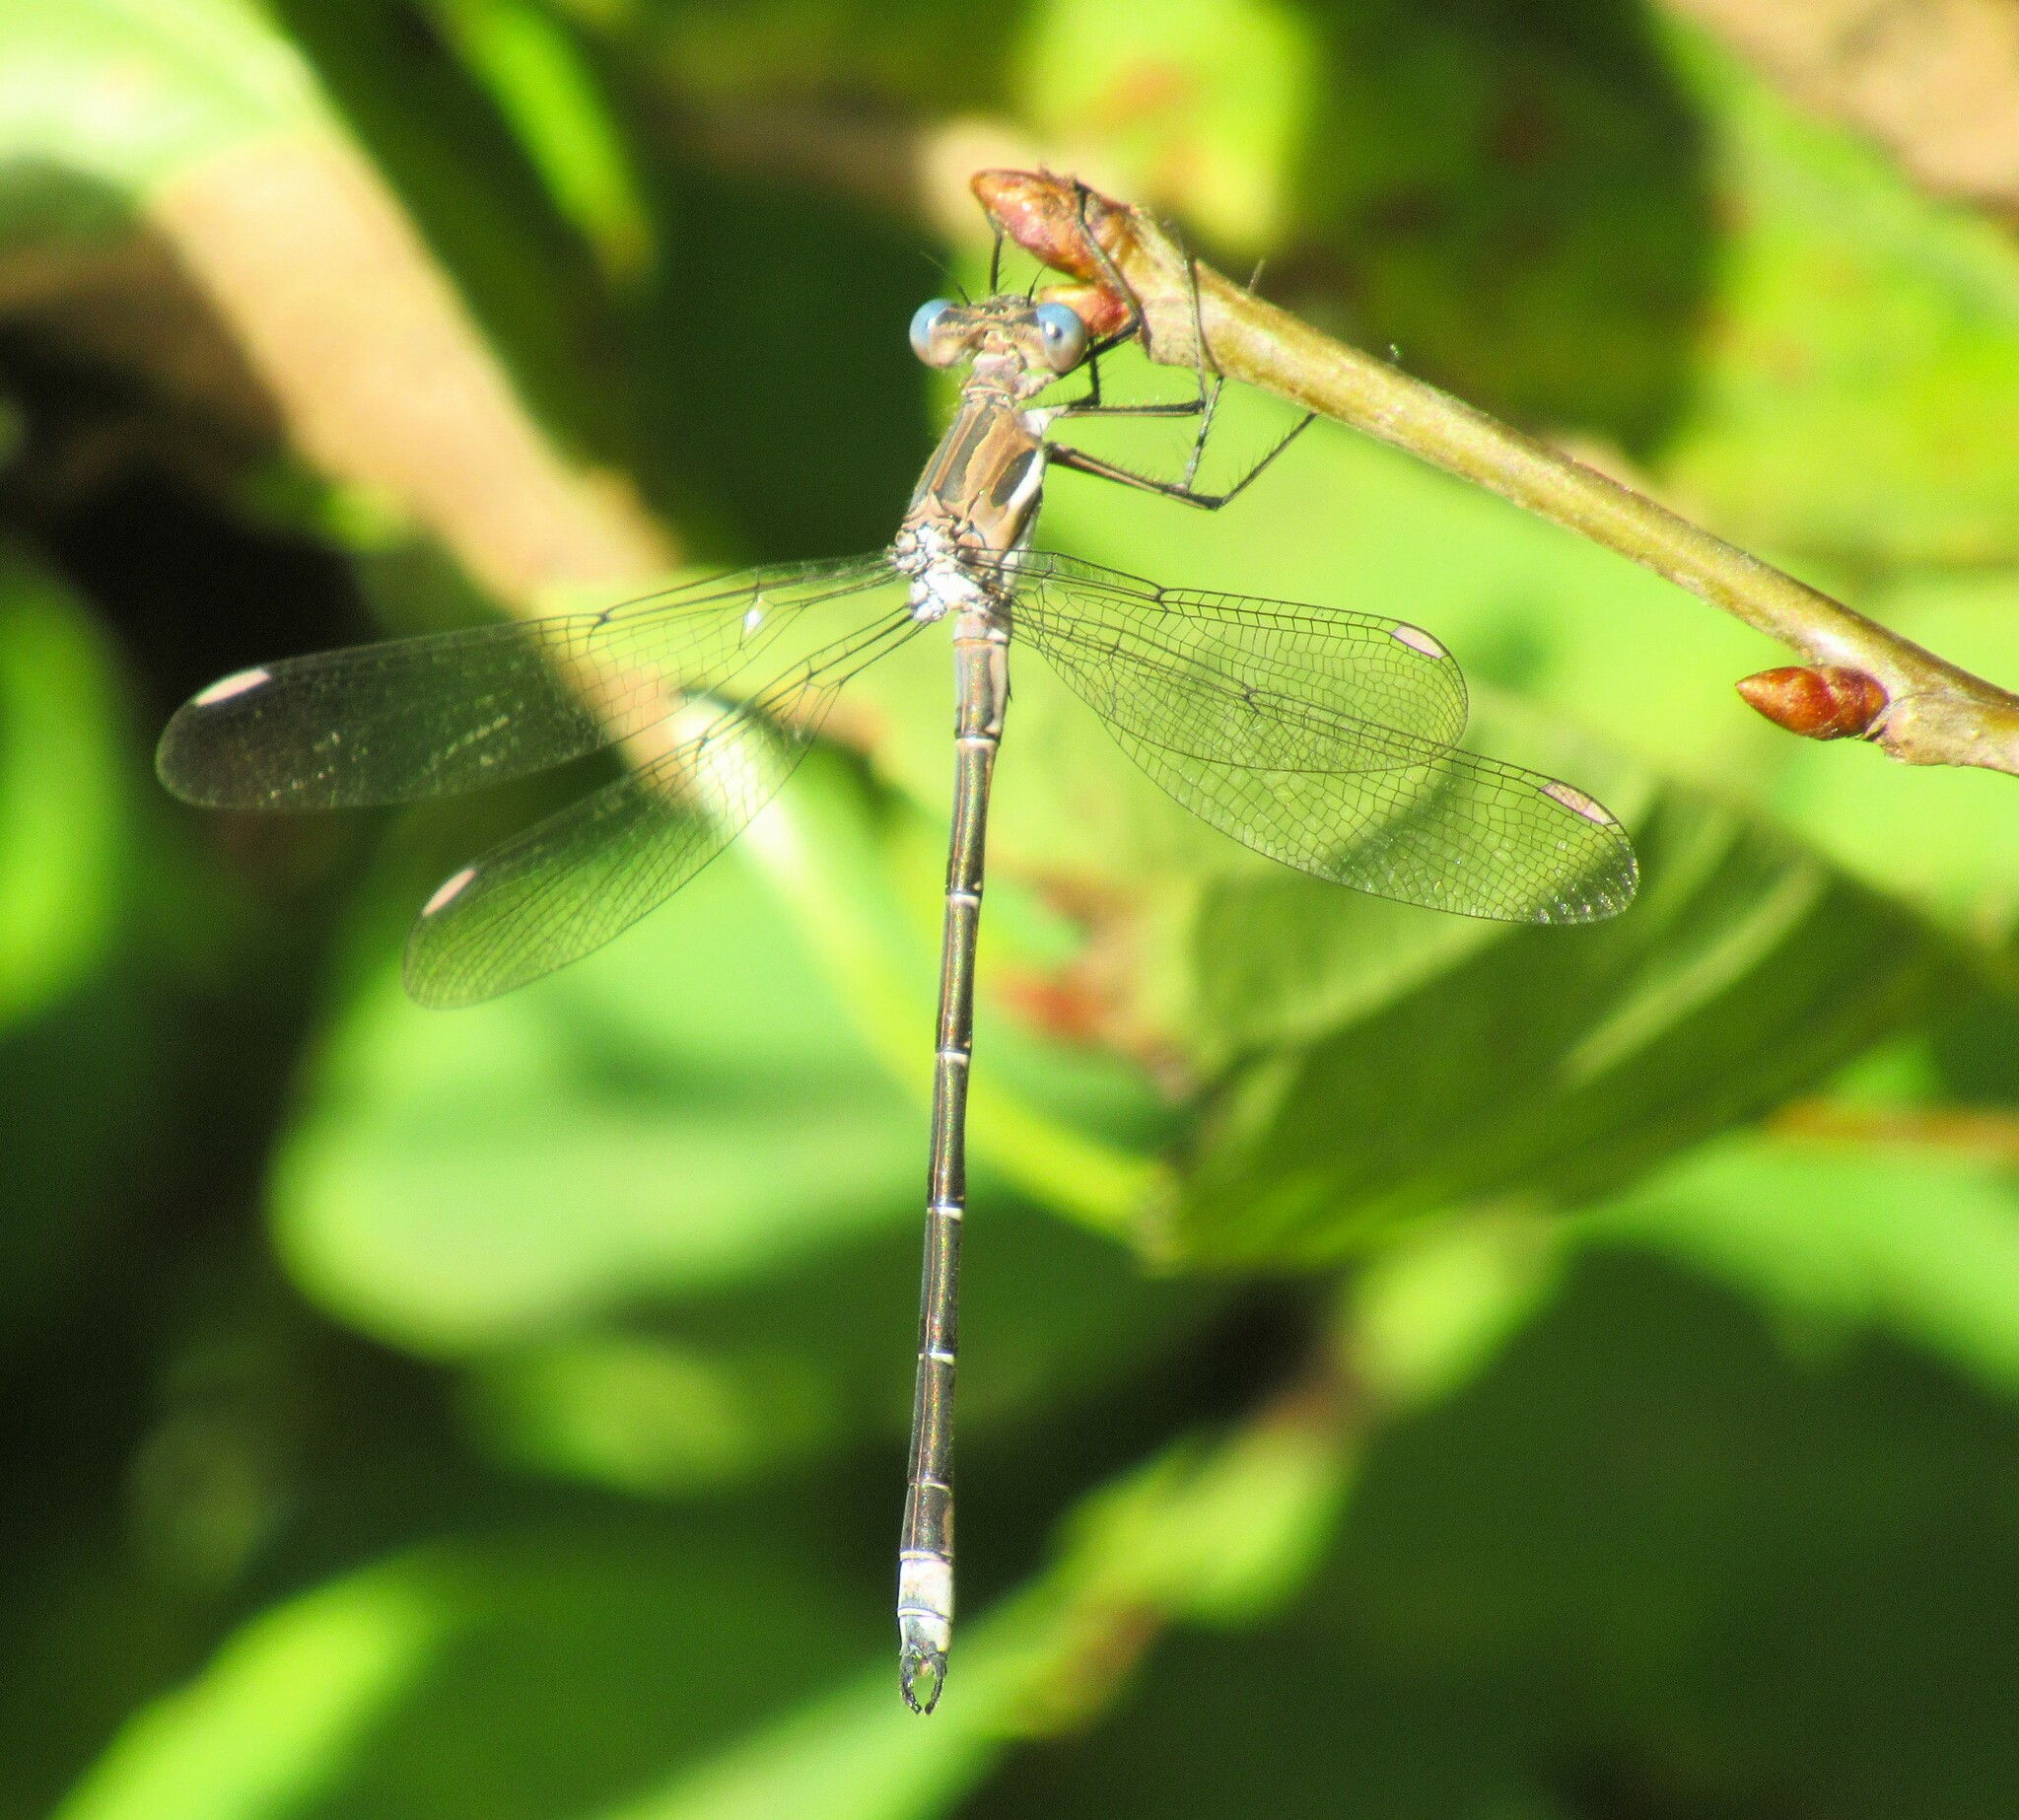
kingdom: Animalia
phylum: Arthropoda
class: Insecta
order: Odonata
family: Lestidae
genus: Archilestes
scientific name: Archilestes californicus
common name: California spreadwing
